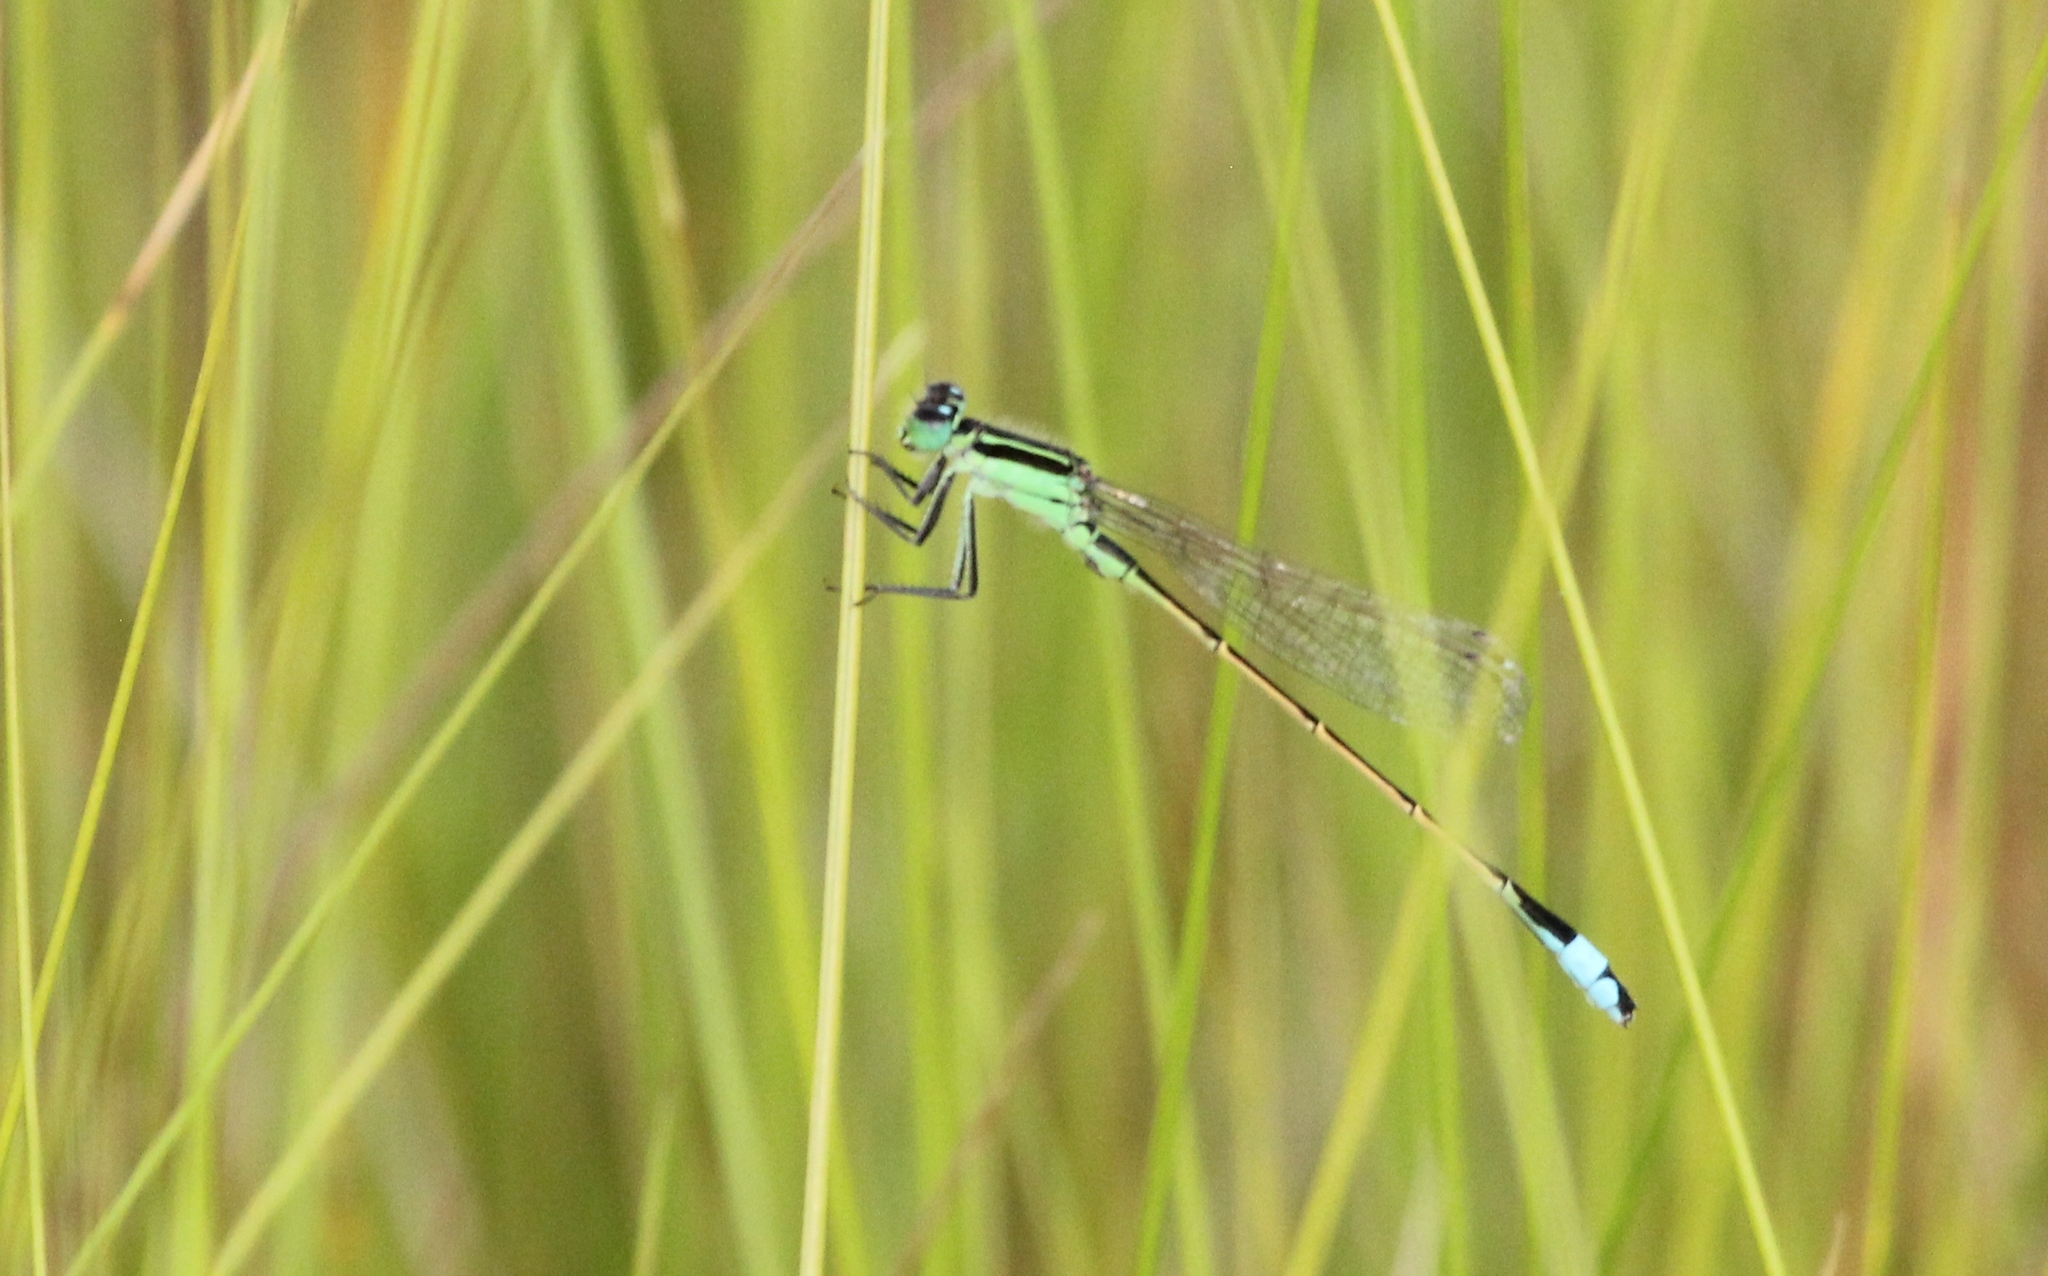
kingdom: Animalia
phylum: Arthropoda
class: Insecta
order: Odonata
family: Coenagrionidae
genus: Ischnura
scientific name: Ischnura ramburii
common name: Rambur's forktail
